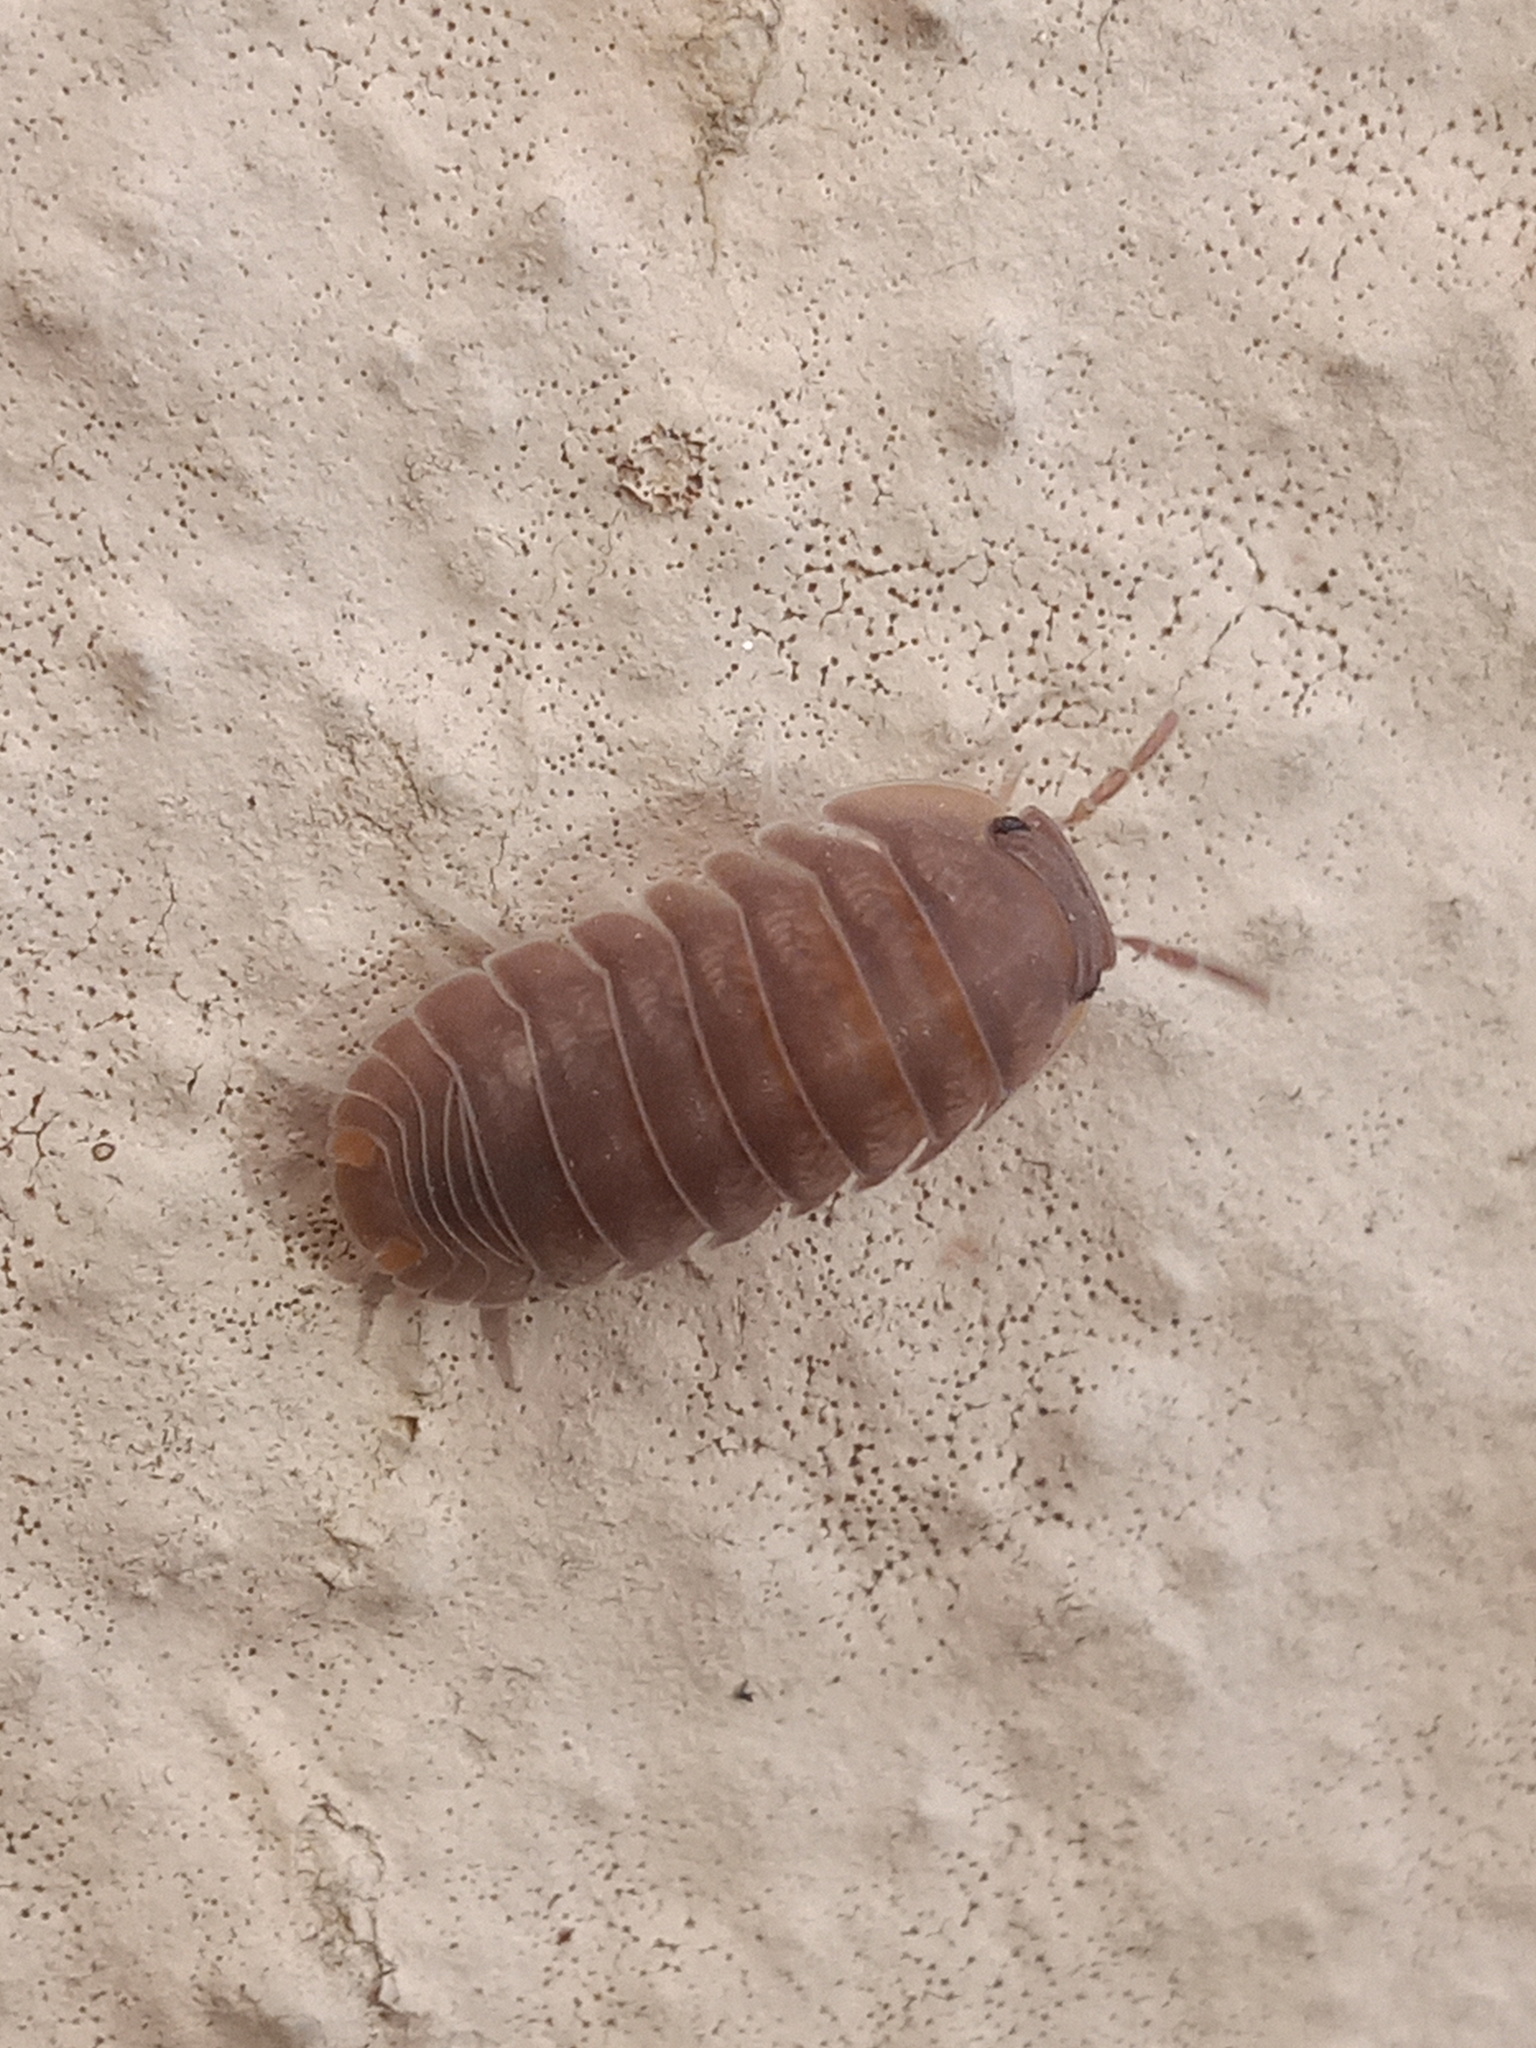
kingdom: Animalia
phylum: Arthropoda
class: Malacostraca
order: Isopoda
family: Armadillidae
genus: Cubaris
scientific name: Cubaris murina
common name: Pillbug
